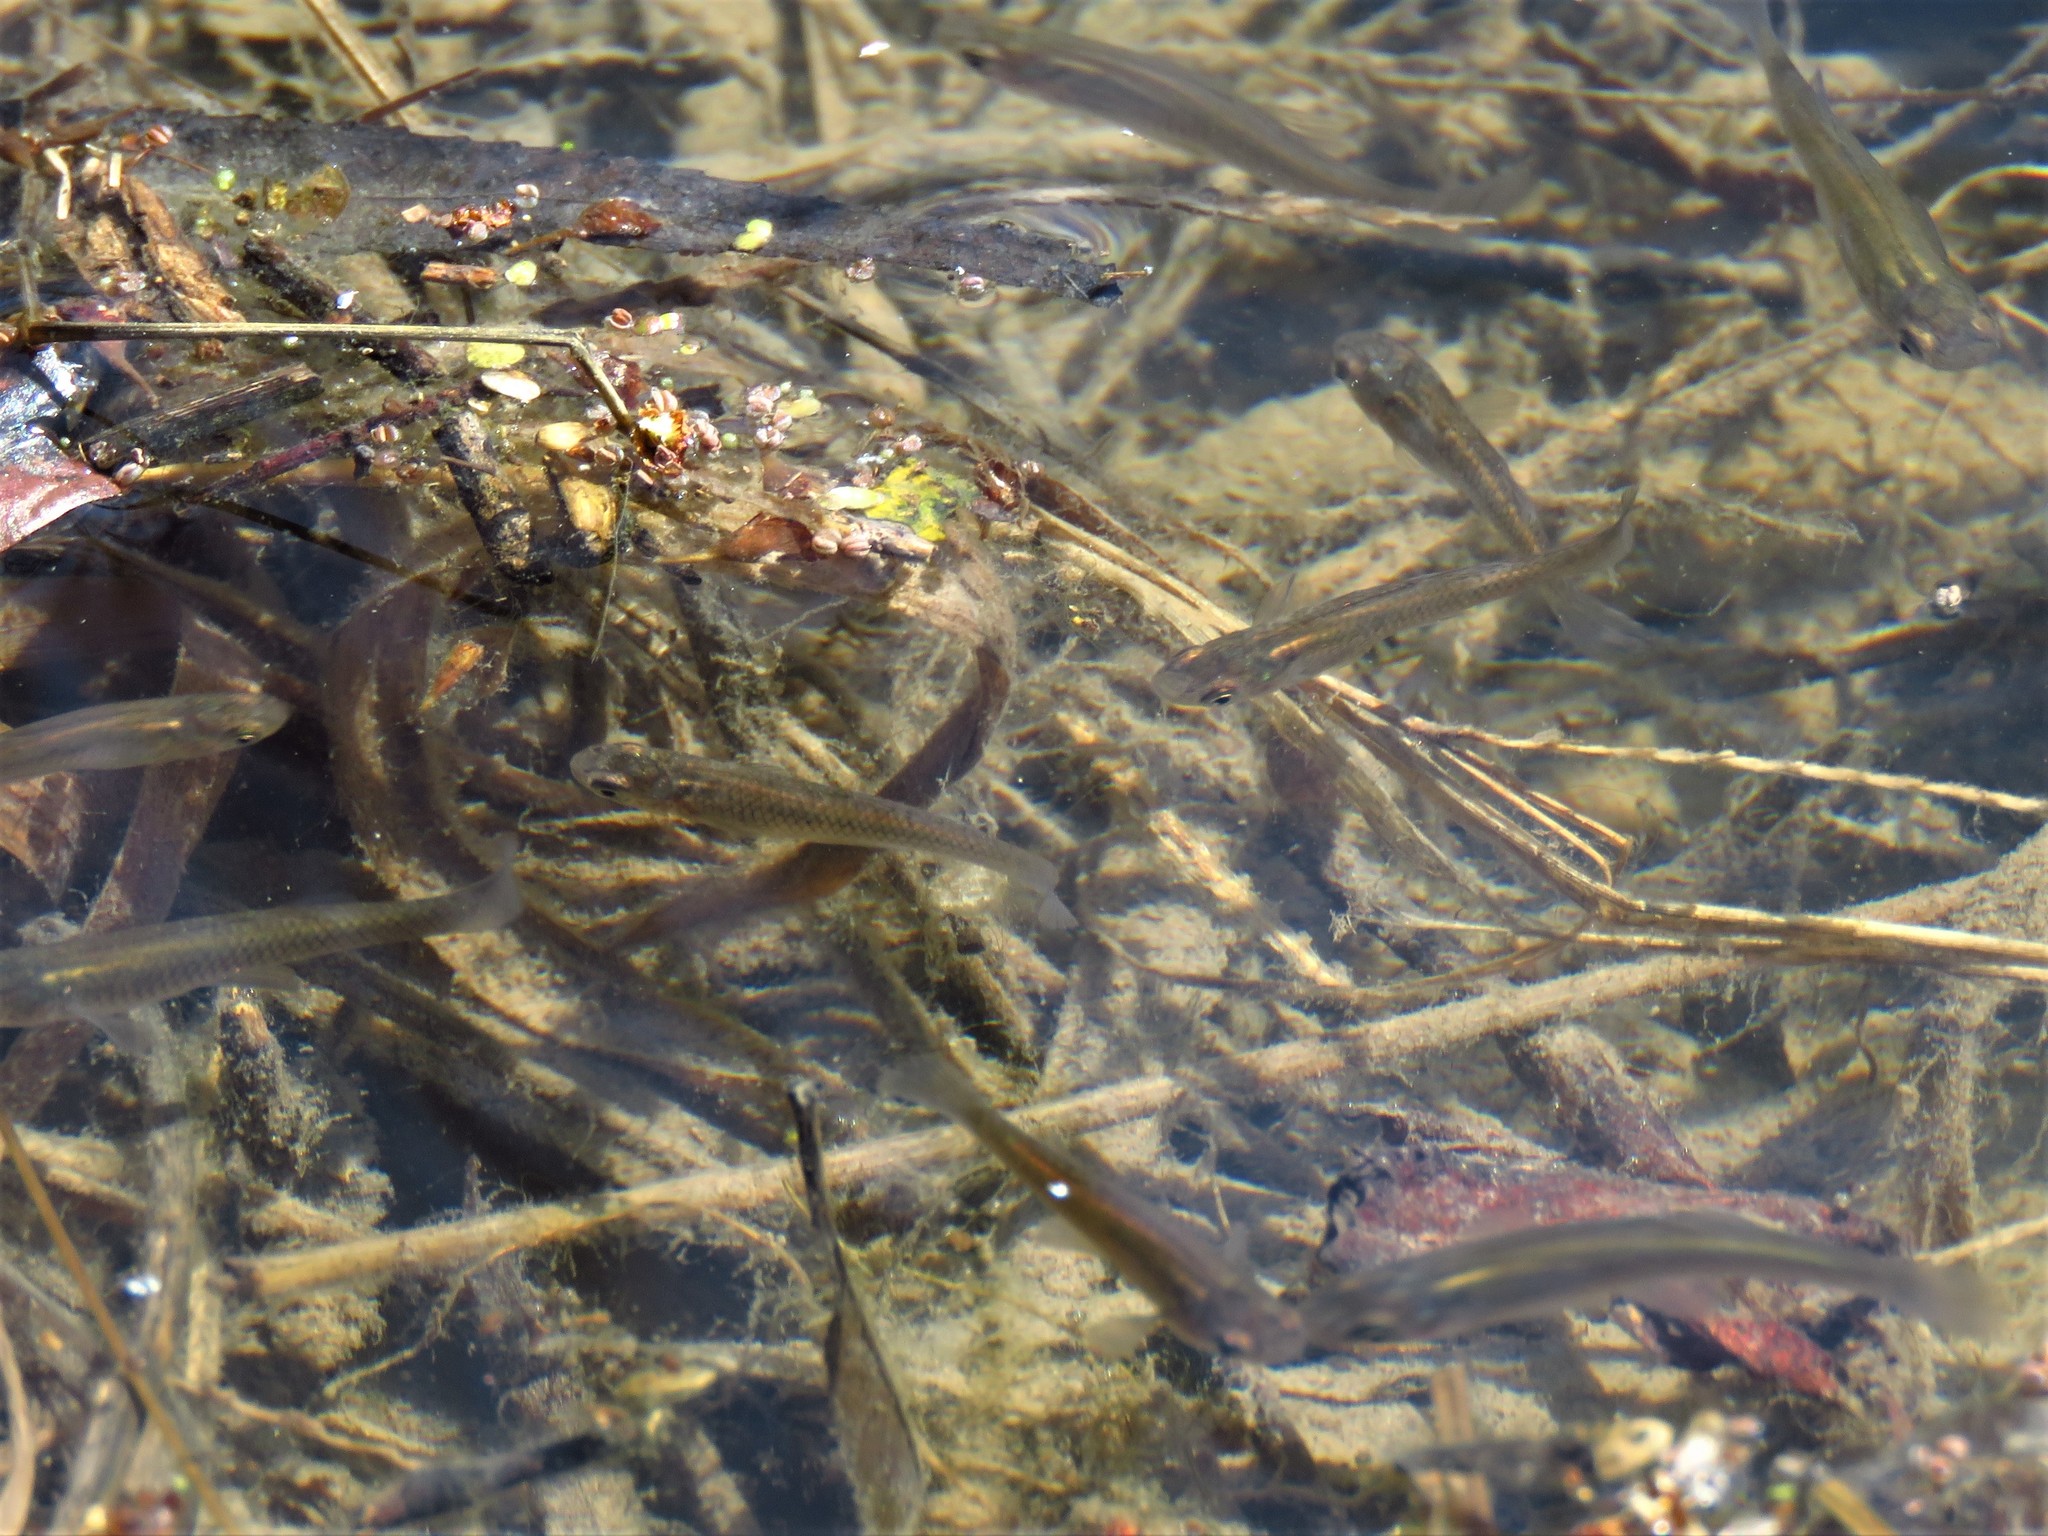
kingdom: Animalia
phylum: Chordata
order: Cyprinodontiformes
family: Poeciliidae
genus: Gambusia
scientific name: Gambusia affinis
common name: Mosquitofish
